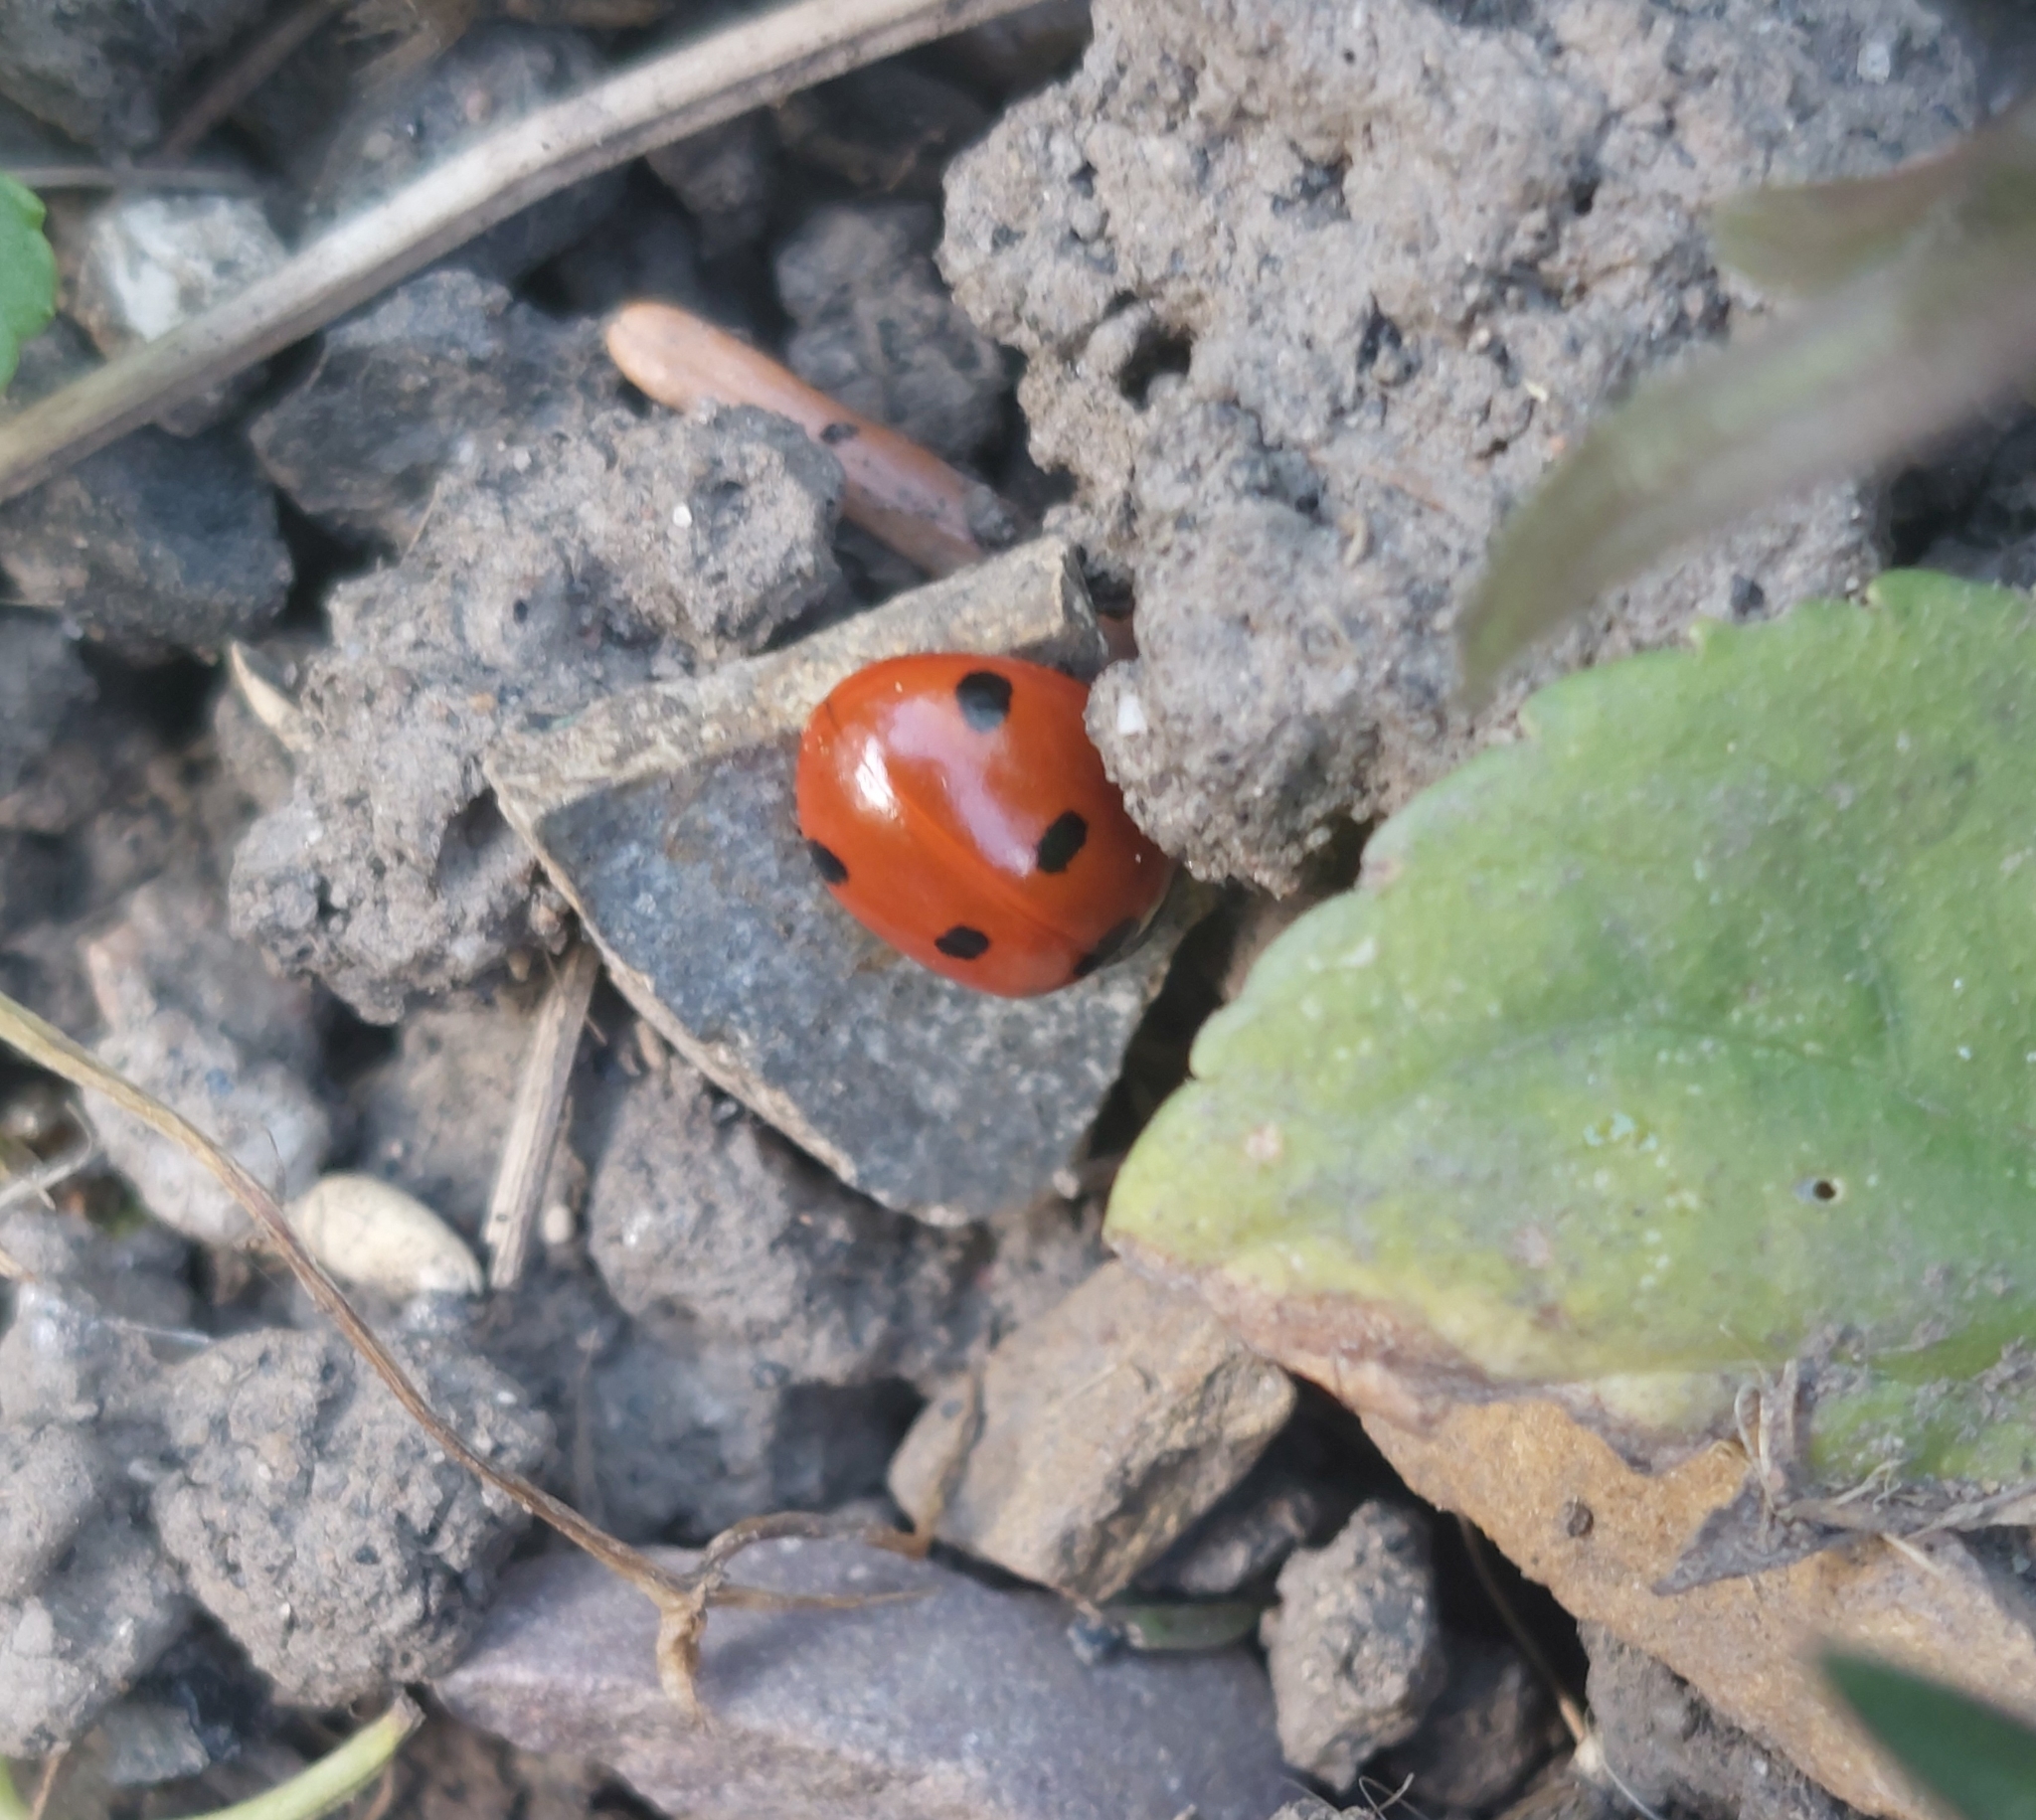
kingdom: Animalia
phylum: Arthropoda
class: Insecta
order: Coleoptera
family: Coccinellidae
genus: Coccinella
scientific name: Coccinella septempunctata
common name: Sevenspotted lady beetle
